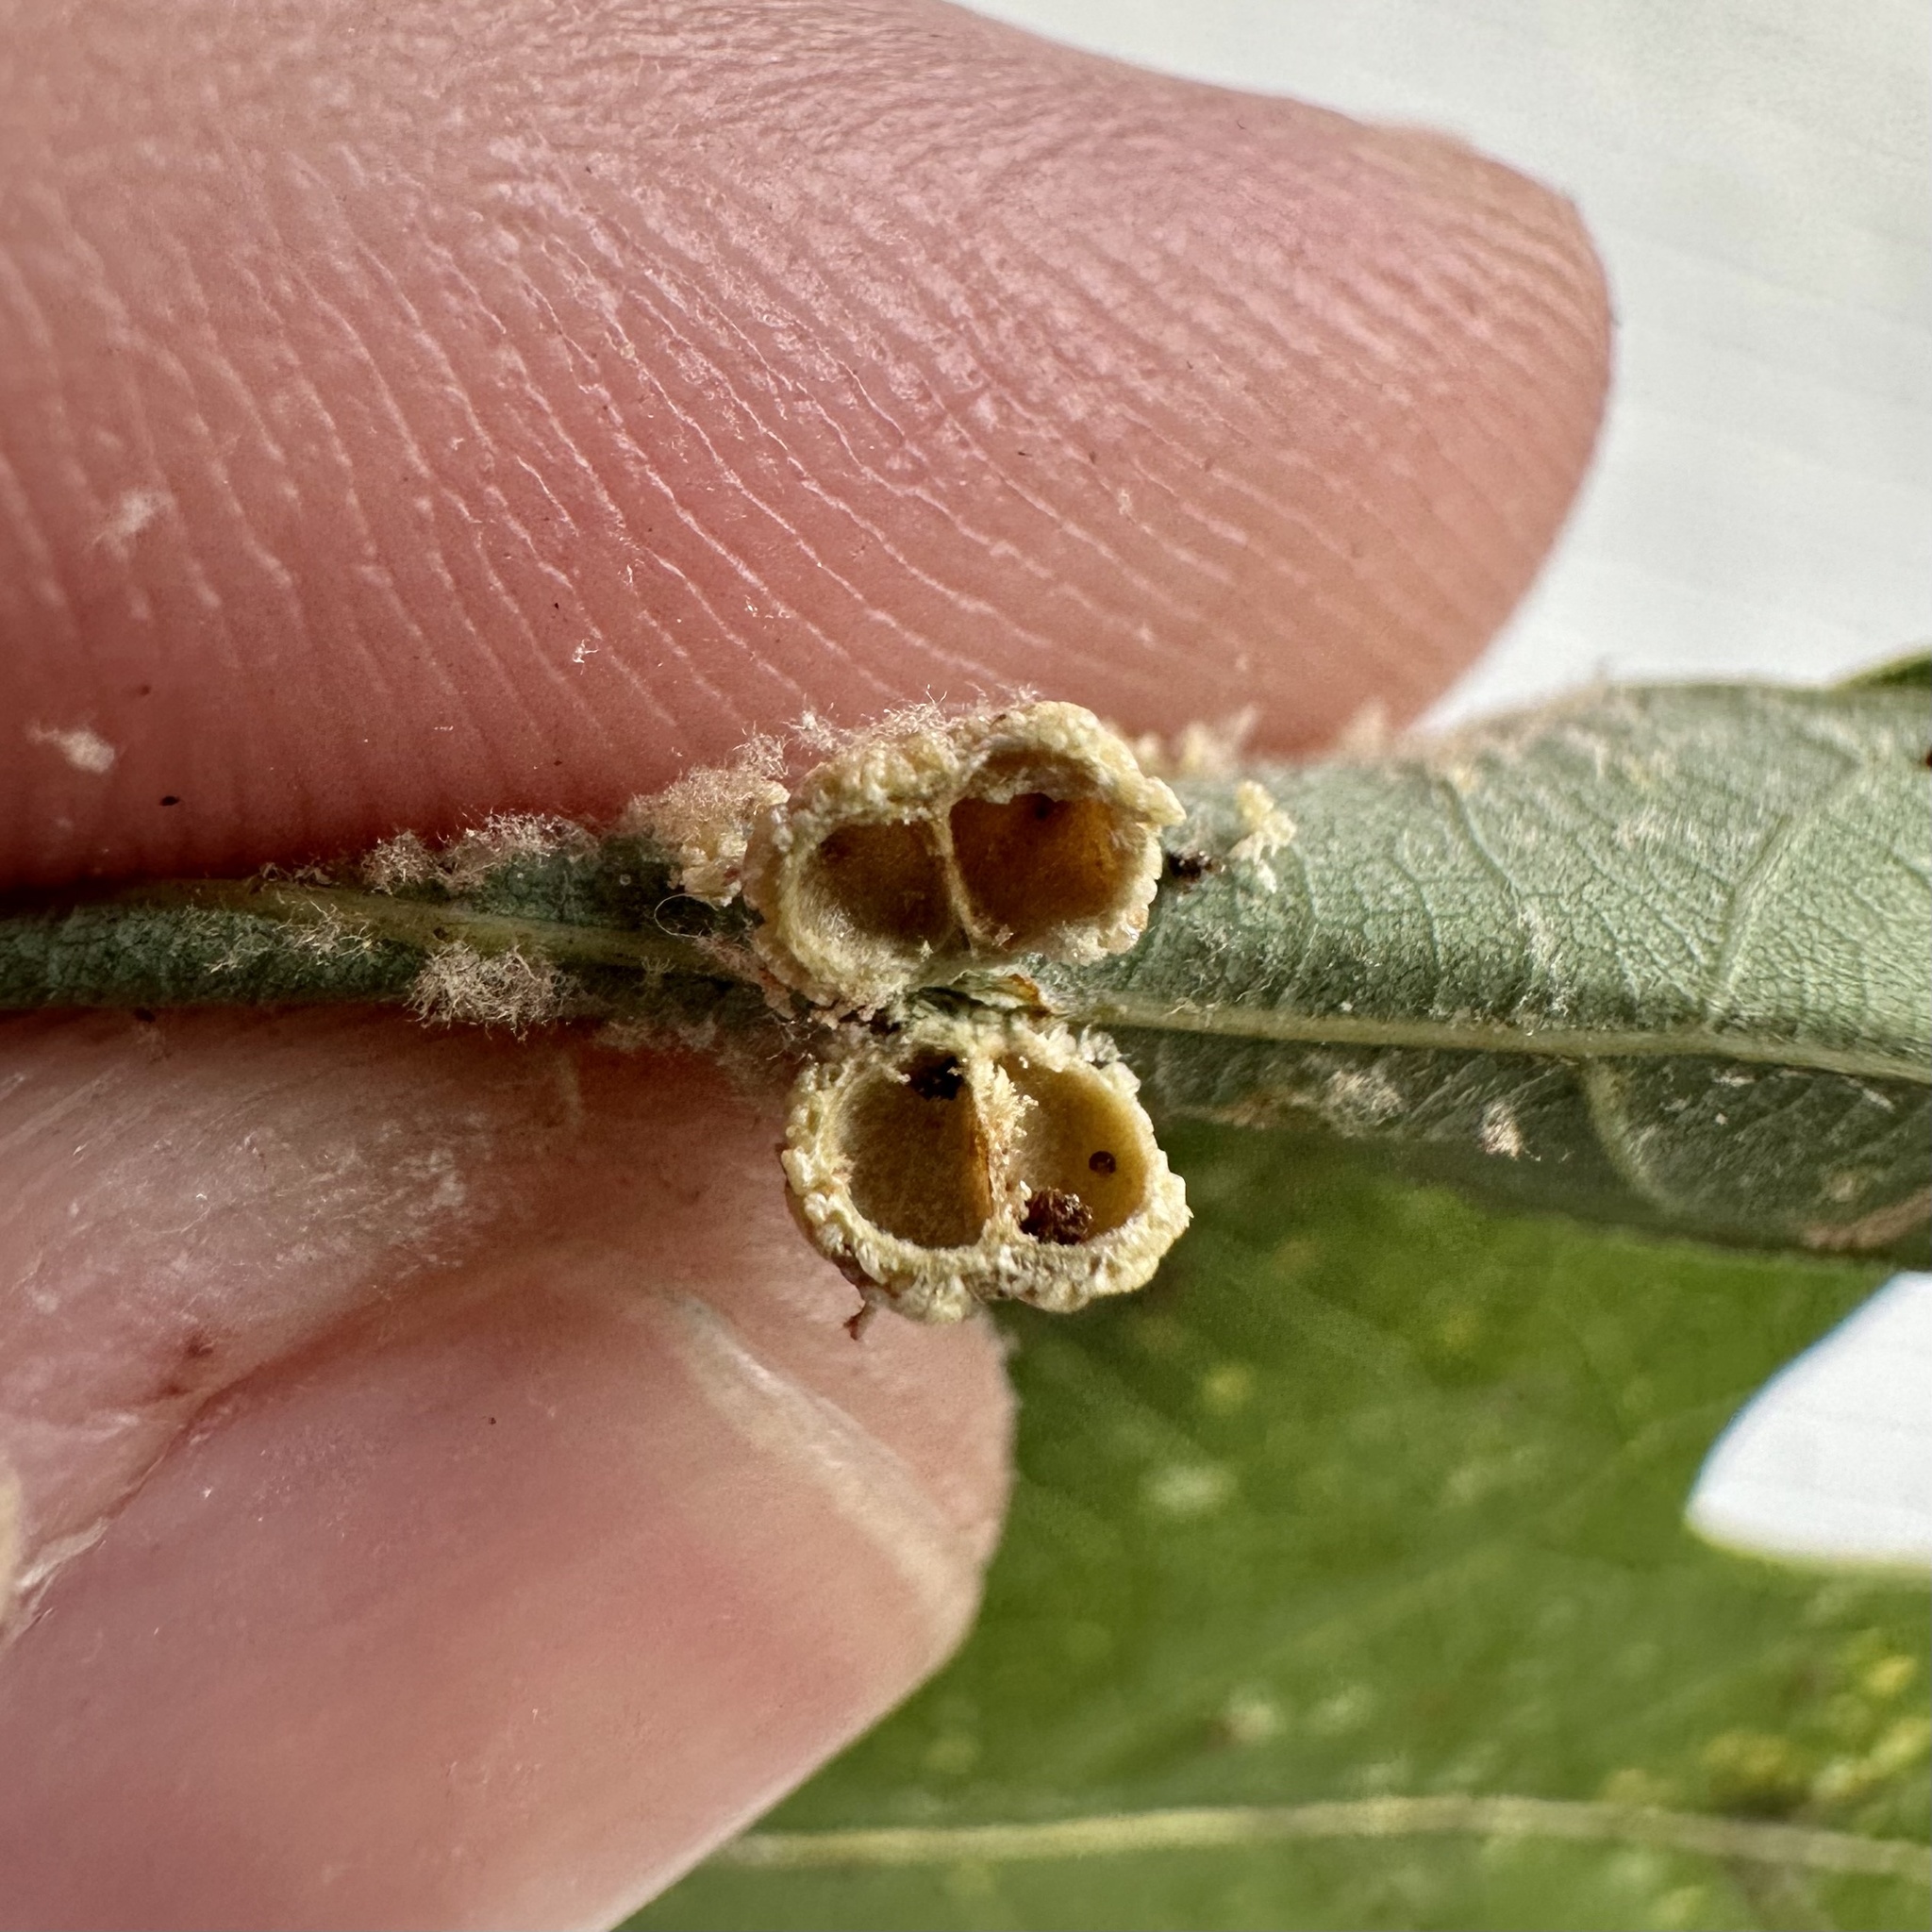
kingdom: Animalia
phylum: Arthropoda
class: Insecta
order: Hymenoptera
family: Cynipidae
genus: Acraspis
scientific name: Acraspis
